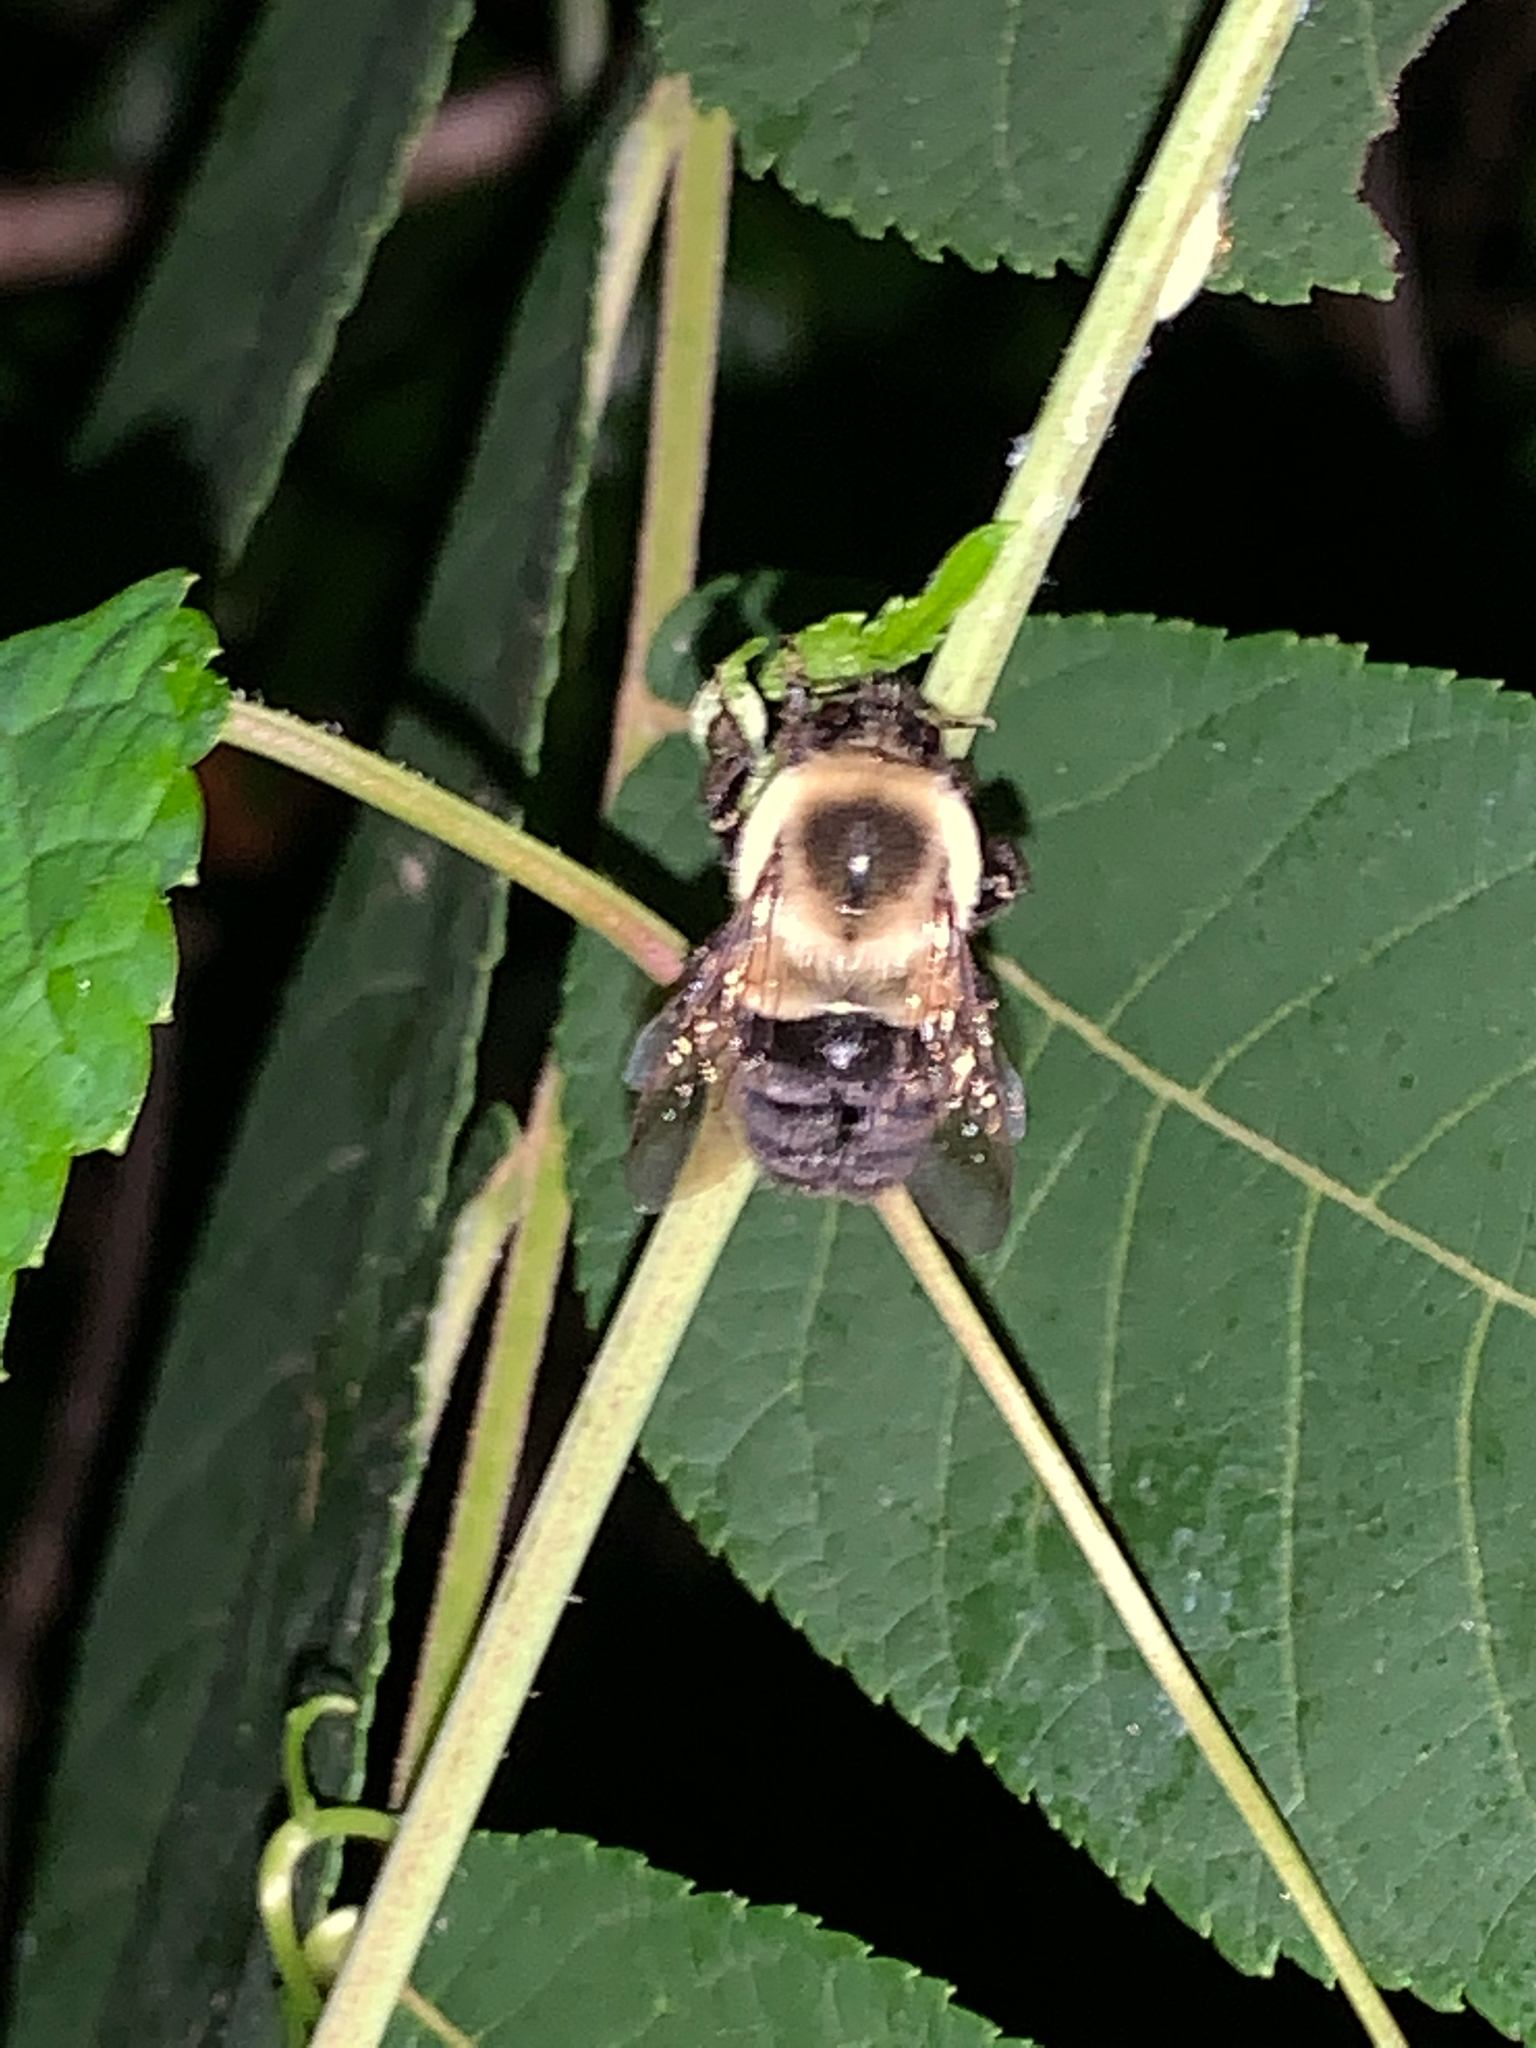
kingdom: Animalia
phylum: Arthropoda
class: Insecta
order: Hymenoptera
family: Apidae
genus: Bombus
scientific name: Bombus impatiens
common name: Common eastern bumble bee
